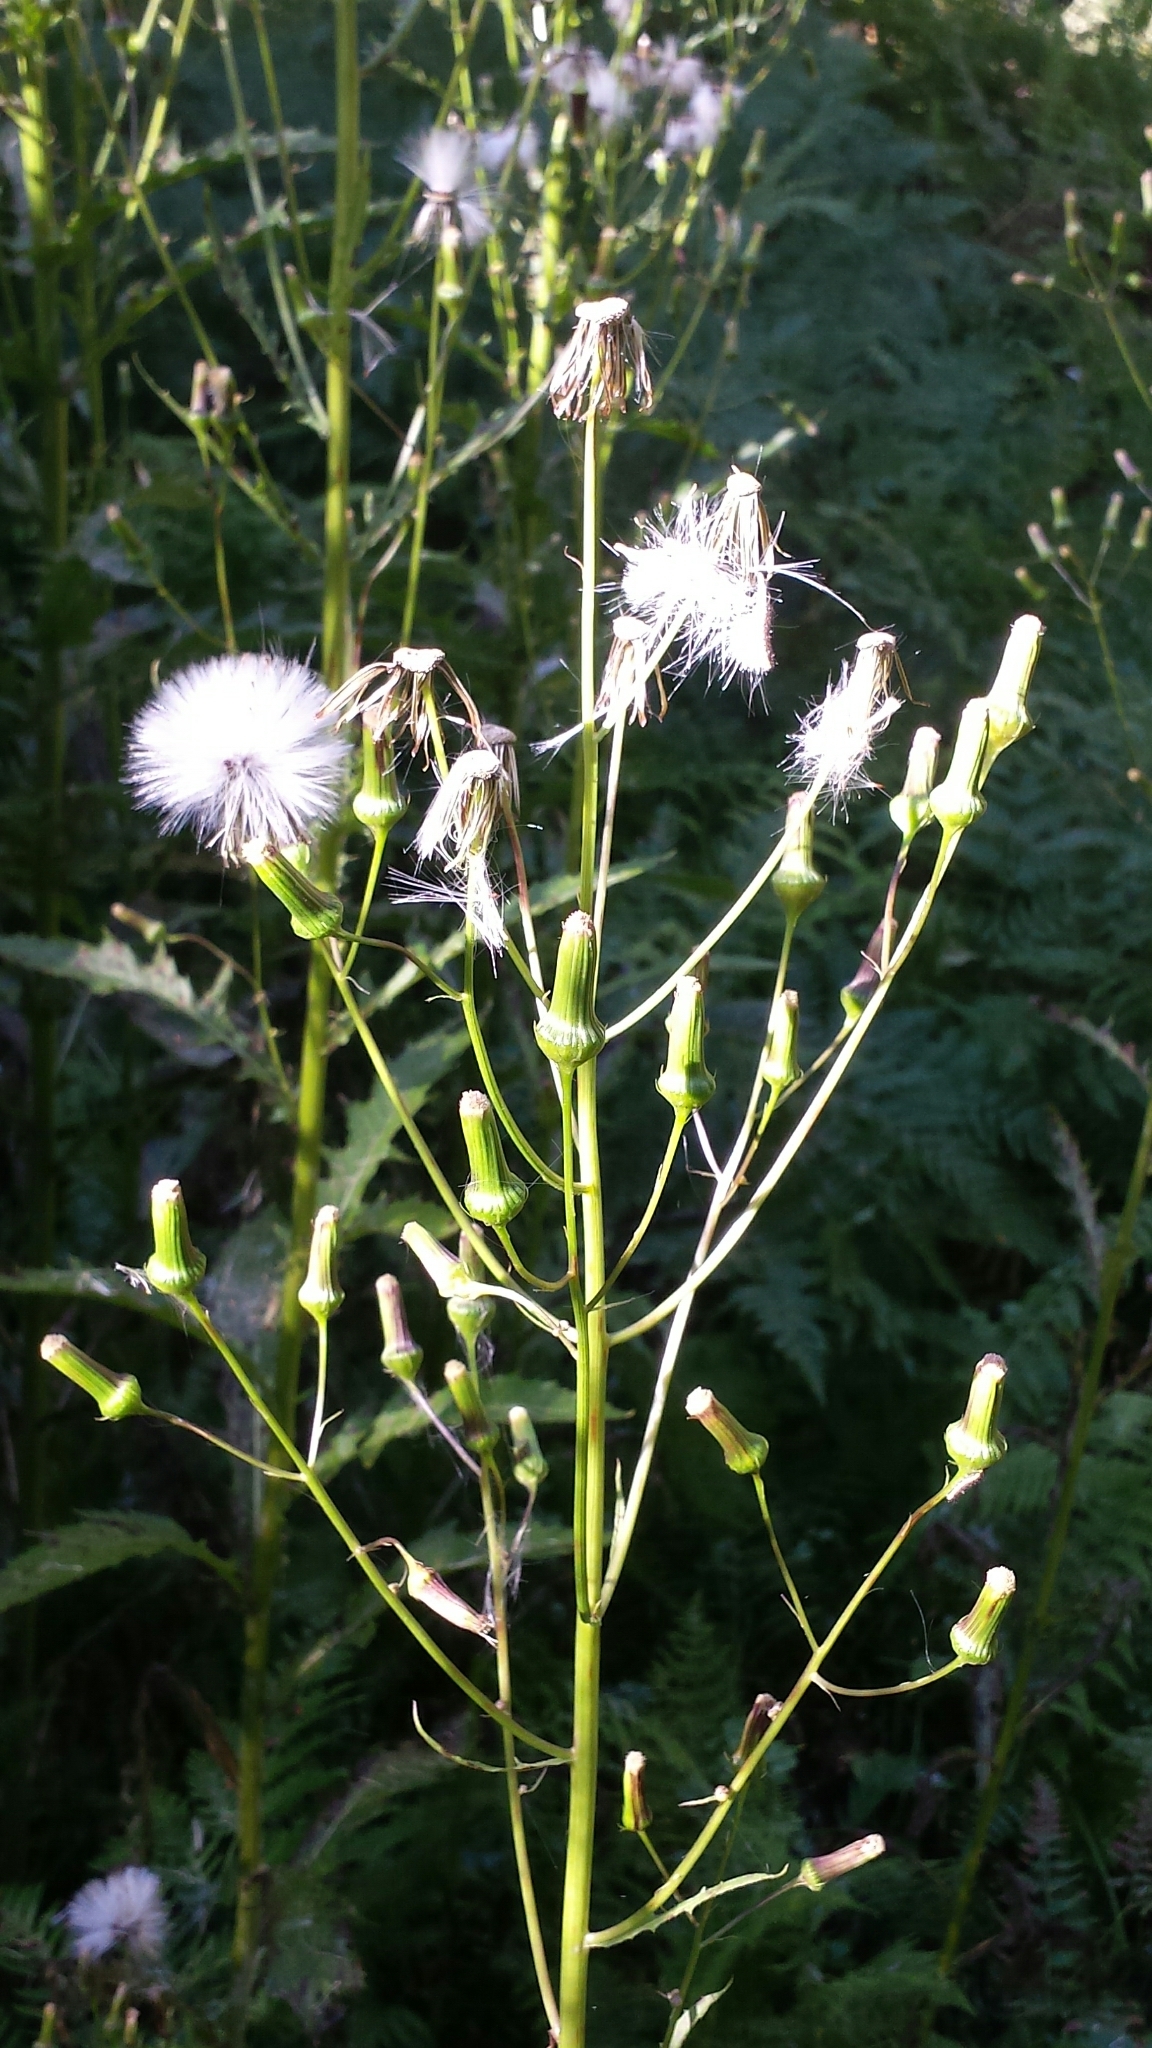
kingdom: Plantae
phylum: Tracheophyta
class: Magnoliopsida
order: Asterales
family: Asteraceae
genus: Erechtites
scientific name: Erechtites hieraciifolius
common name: American burnweed
